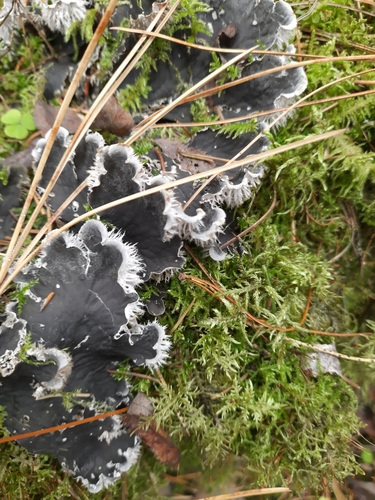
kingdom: Fungi
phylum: Ascomycota
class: Lecanoromycetes
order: Peltigerales
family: Peltigeraceae
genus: Peltigera
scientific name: Peltigera canina
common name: Dog pelt lichen
